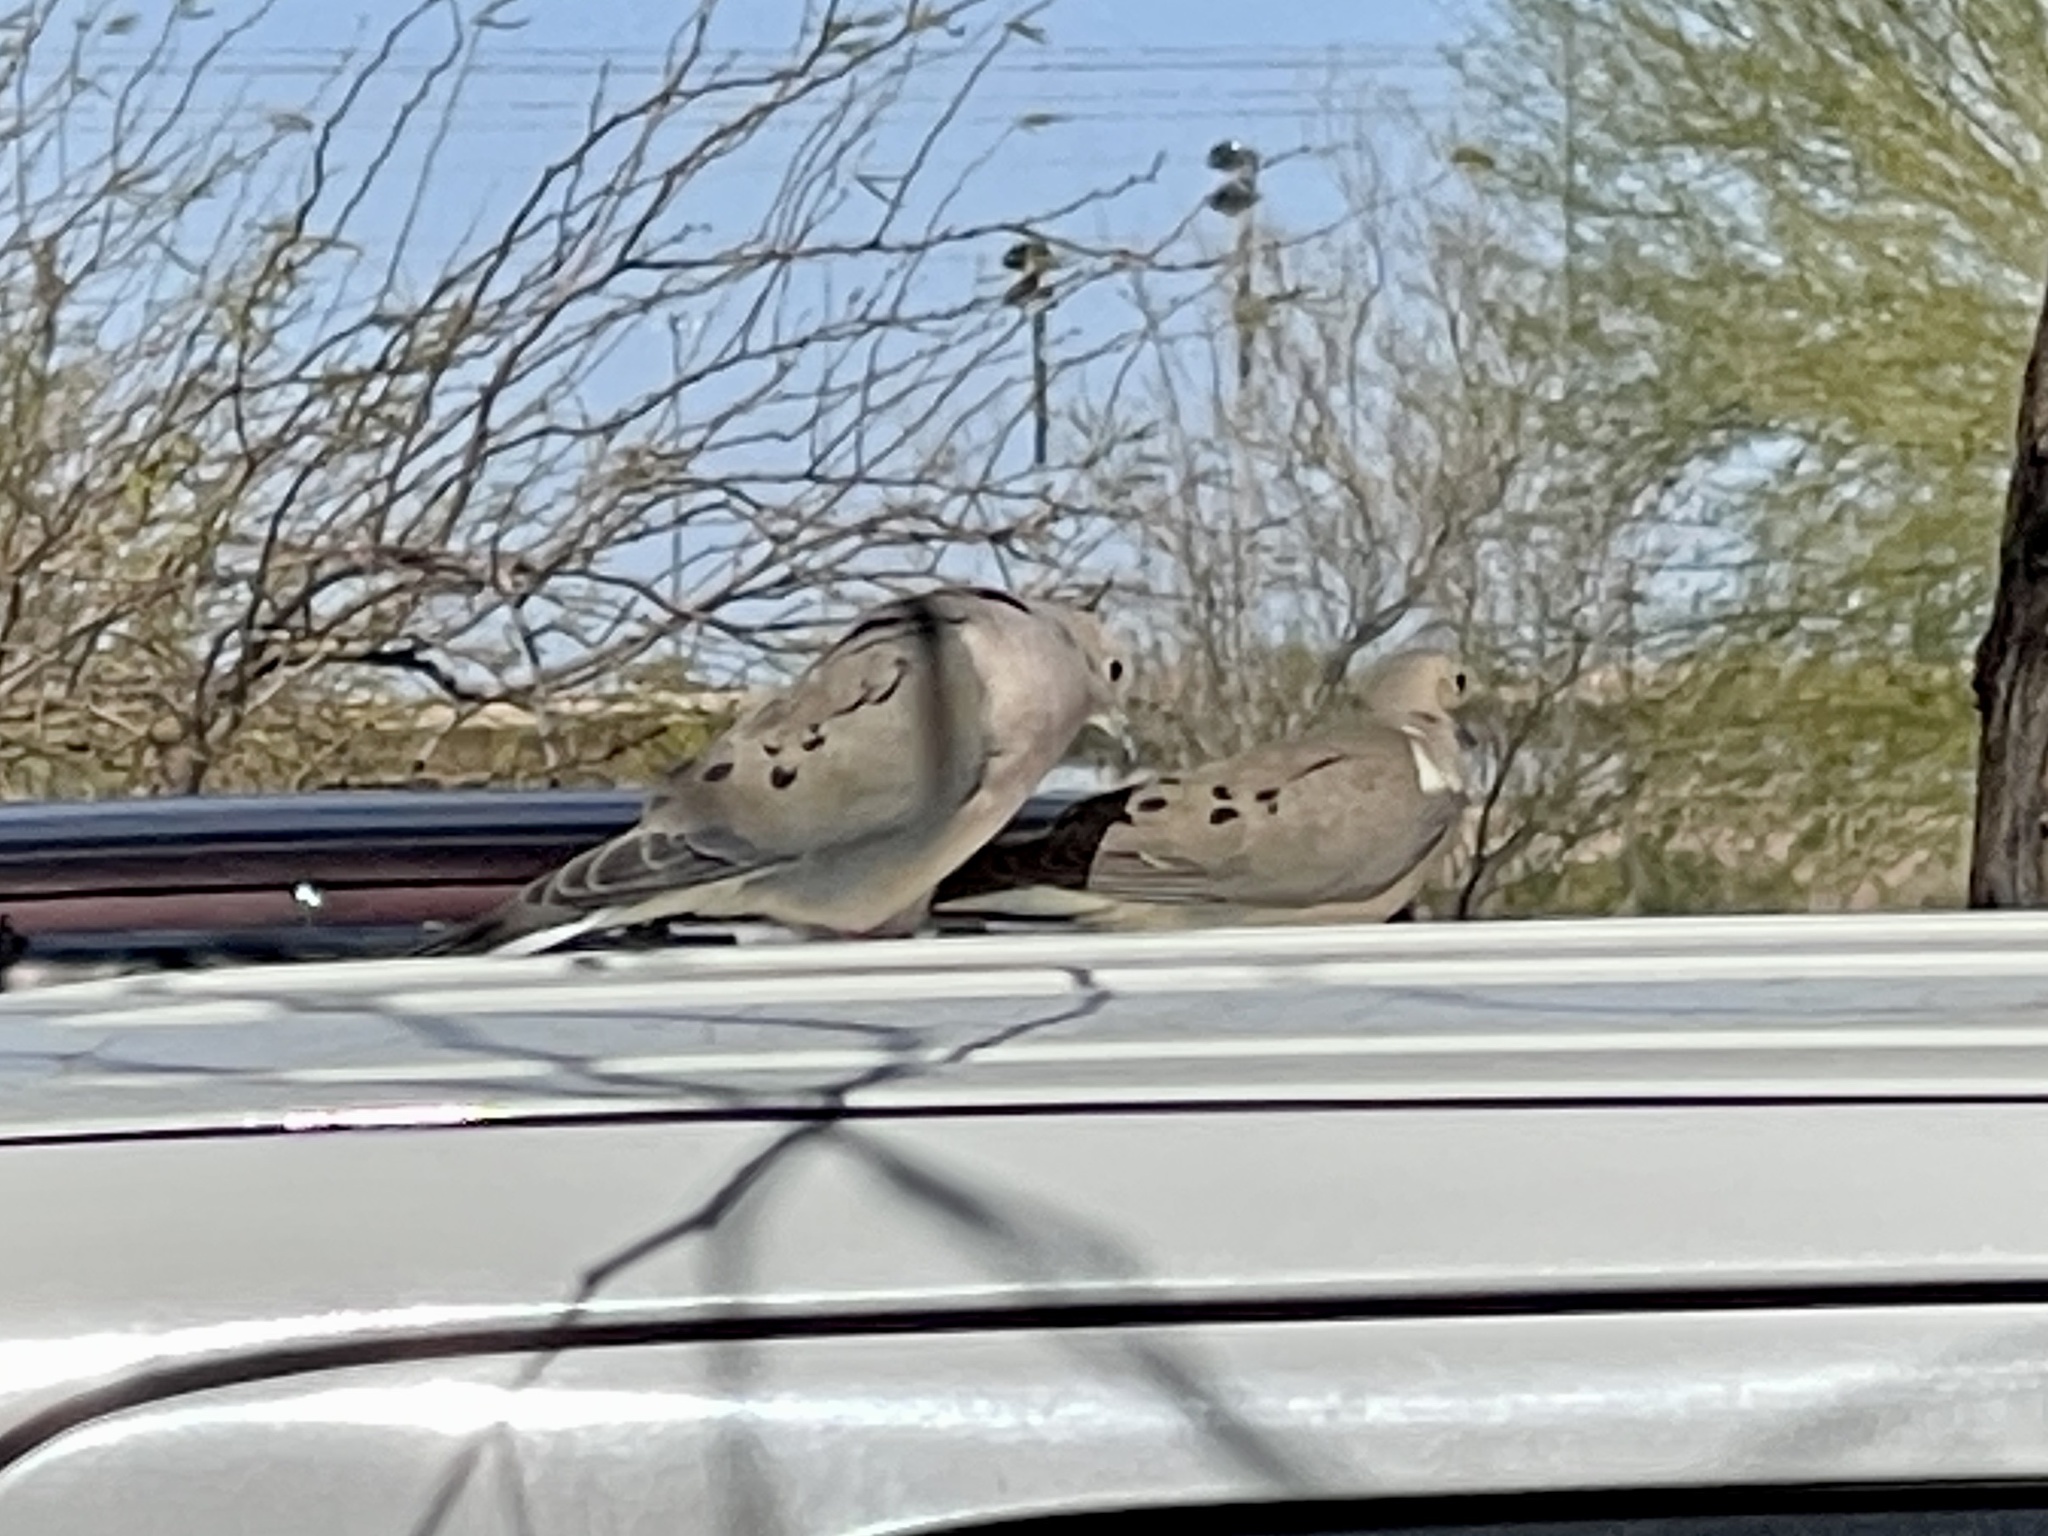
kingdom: Animalia
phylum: Chordata
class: Aves
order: Columbiformes
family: Columbidae
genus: Zenaida
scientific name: Zenaida macroura
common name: Mourning dove
